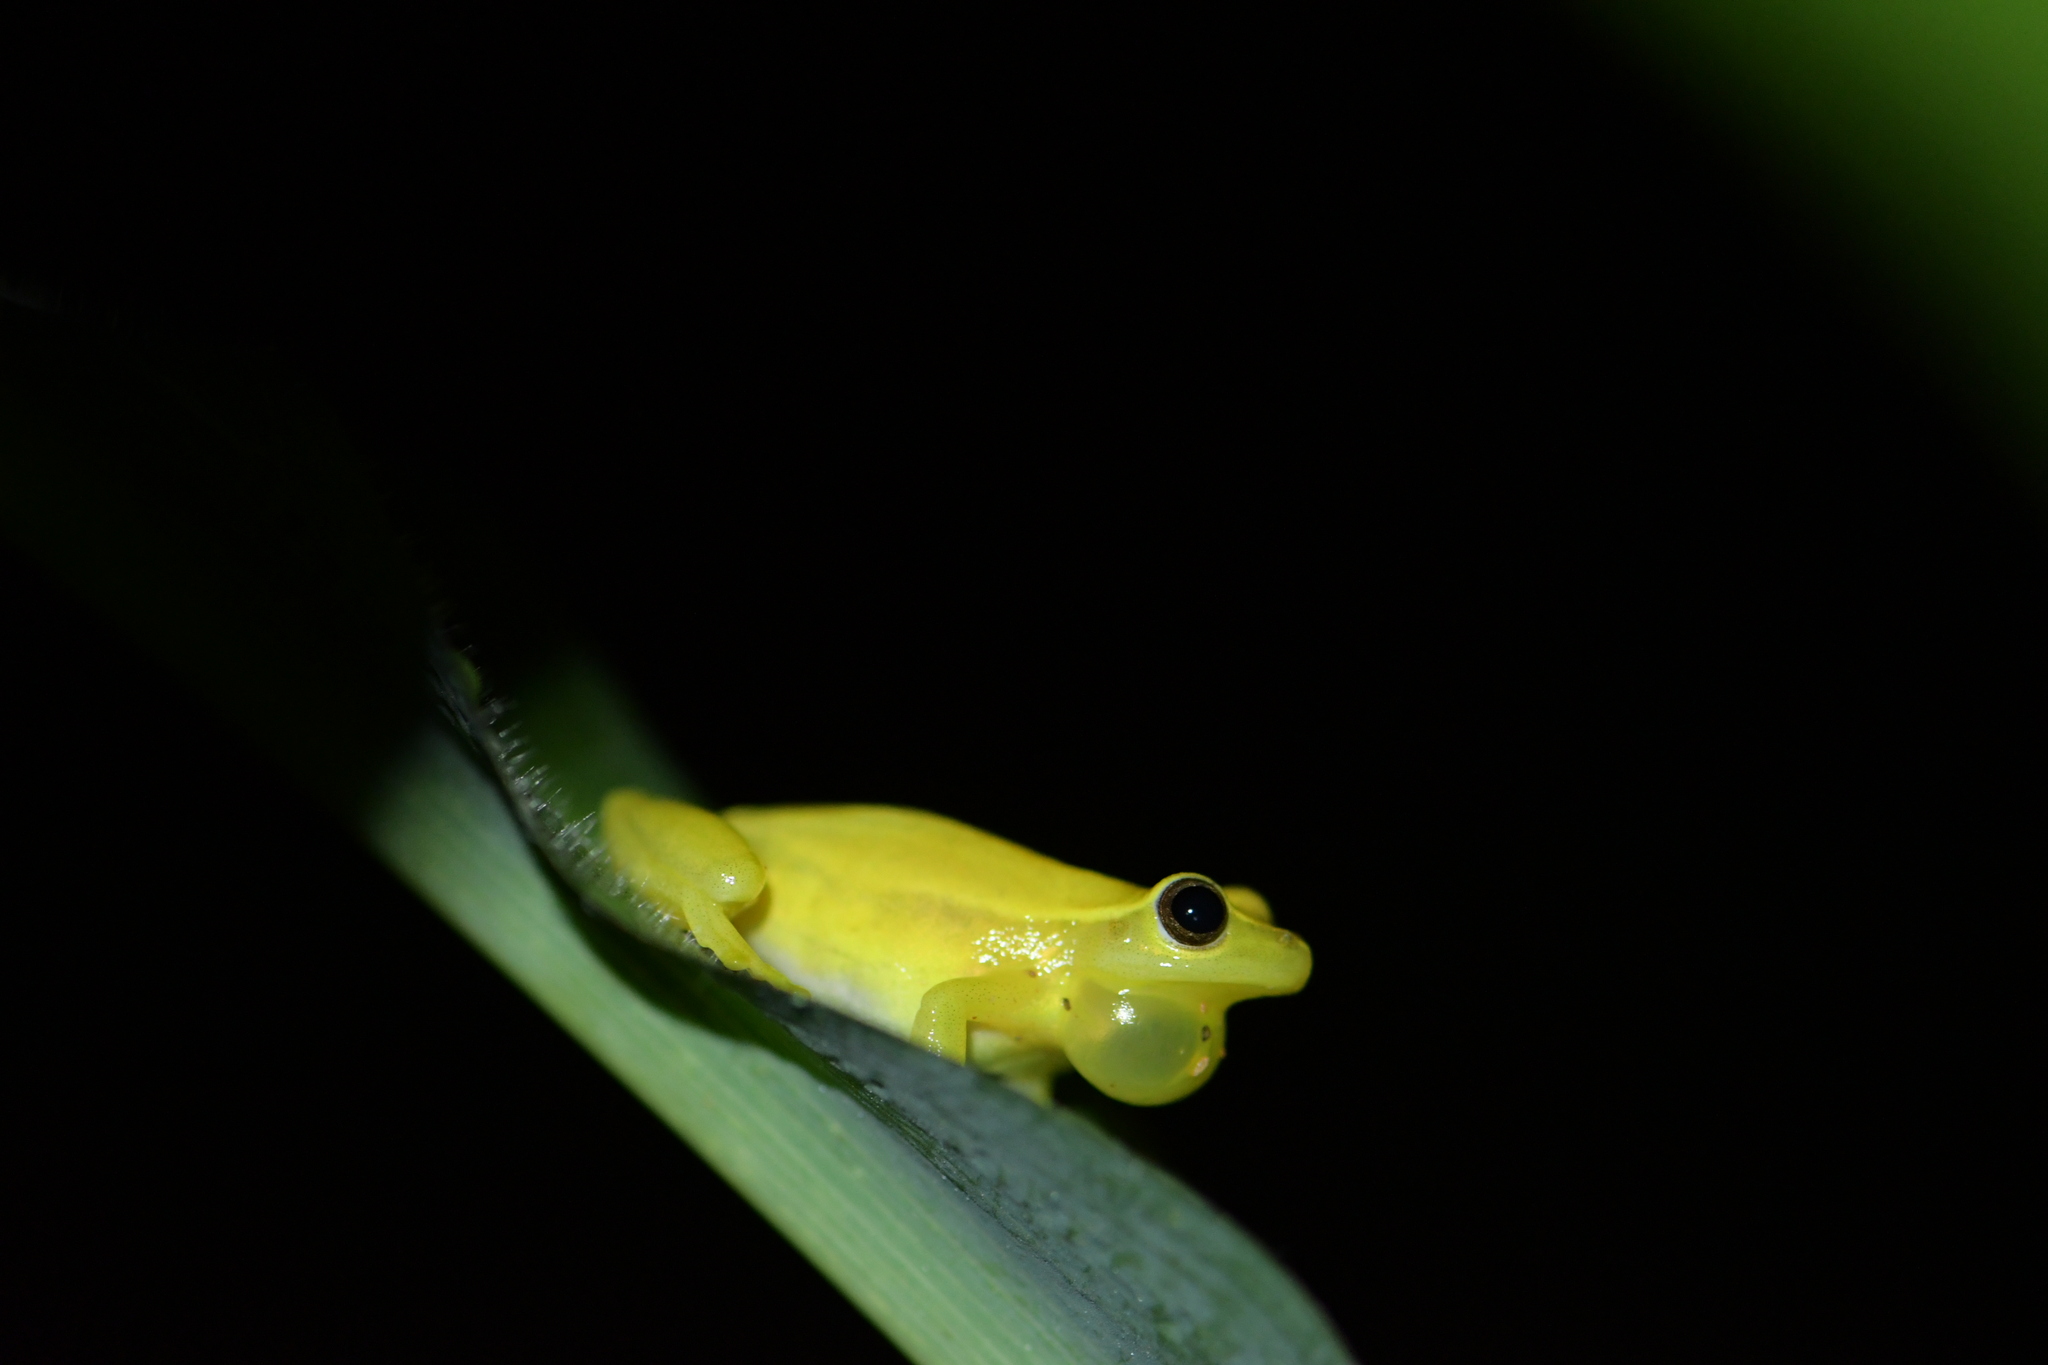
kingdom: Animalia
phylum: Chordata
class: Amphibia
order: Anura
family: Hylidae
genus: Tlalocohyla
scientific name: Tlalocohyla smithii
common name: Dwarf mexican treefrog
